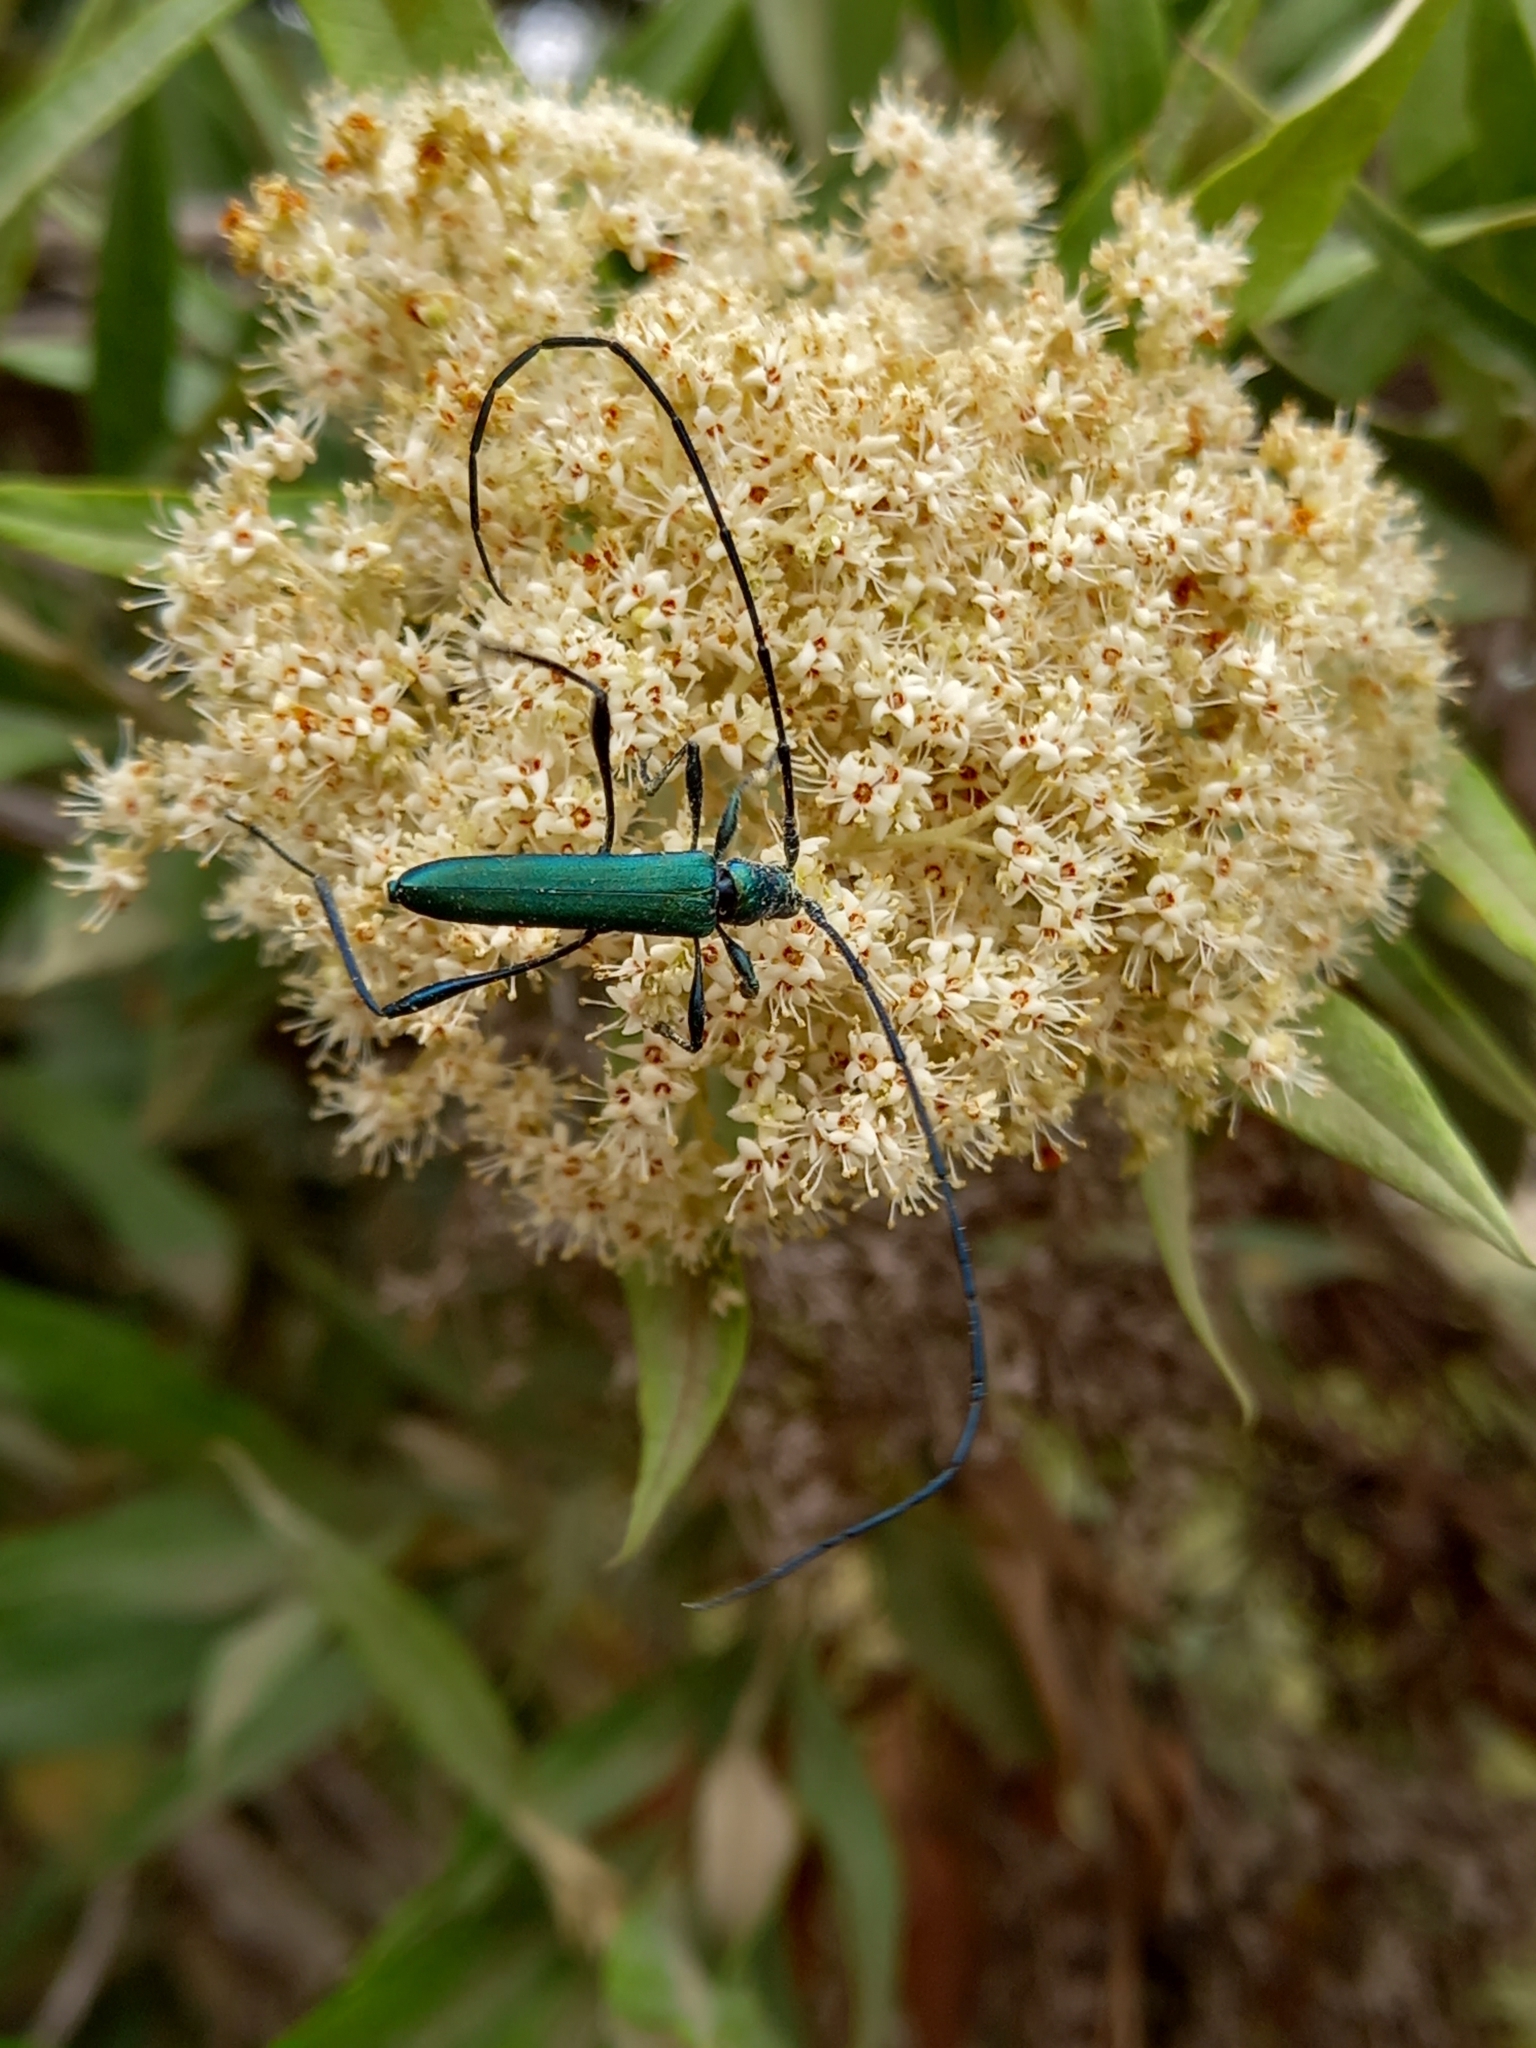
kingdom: Animalia
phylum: Arthropoda
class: Insecta
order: Coleoptera
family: Cerambycidae
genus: Promeces
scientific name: Promeces longipes
